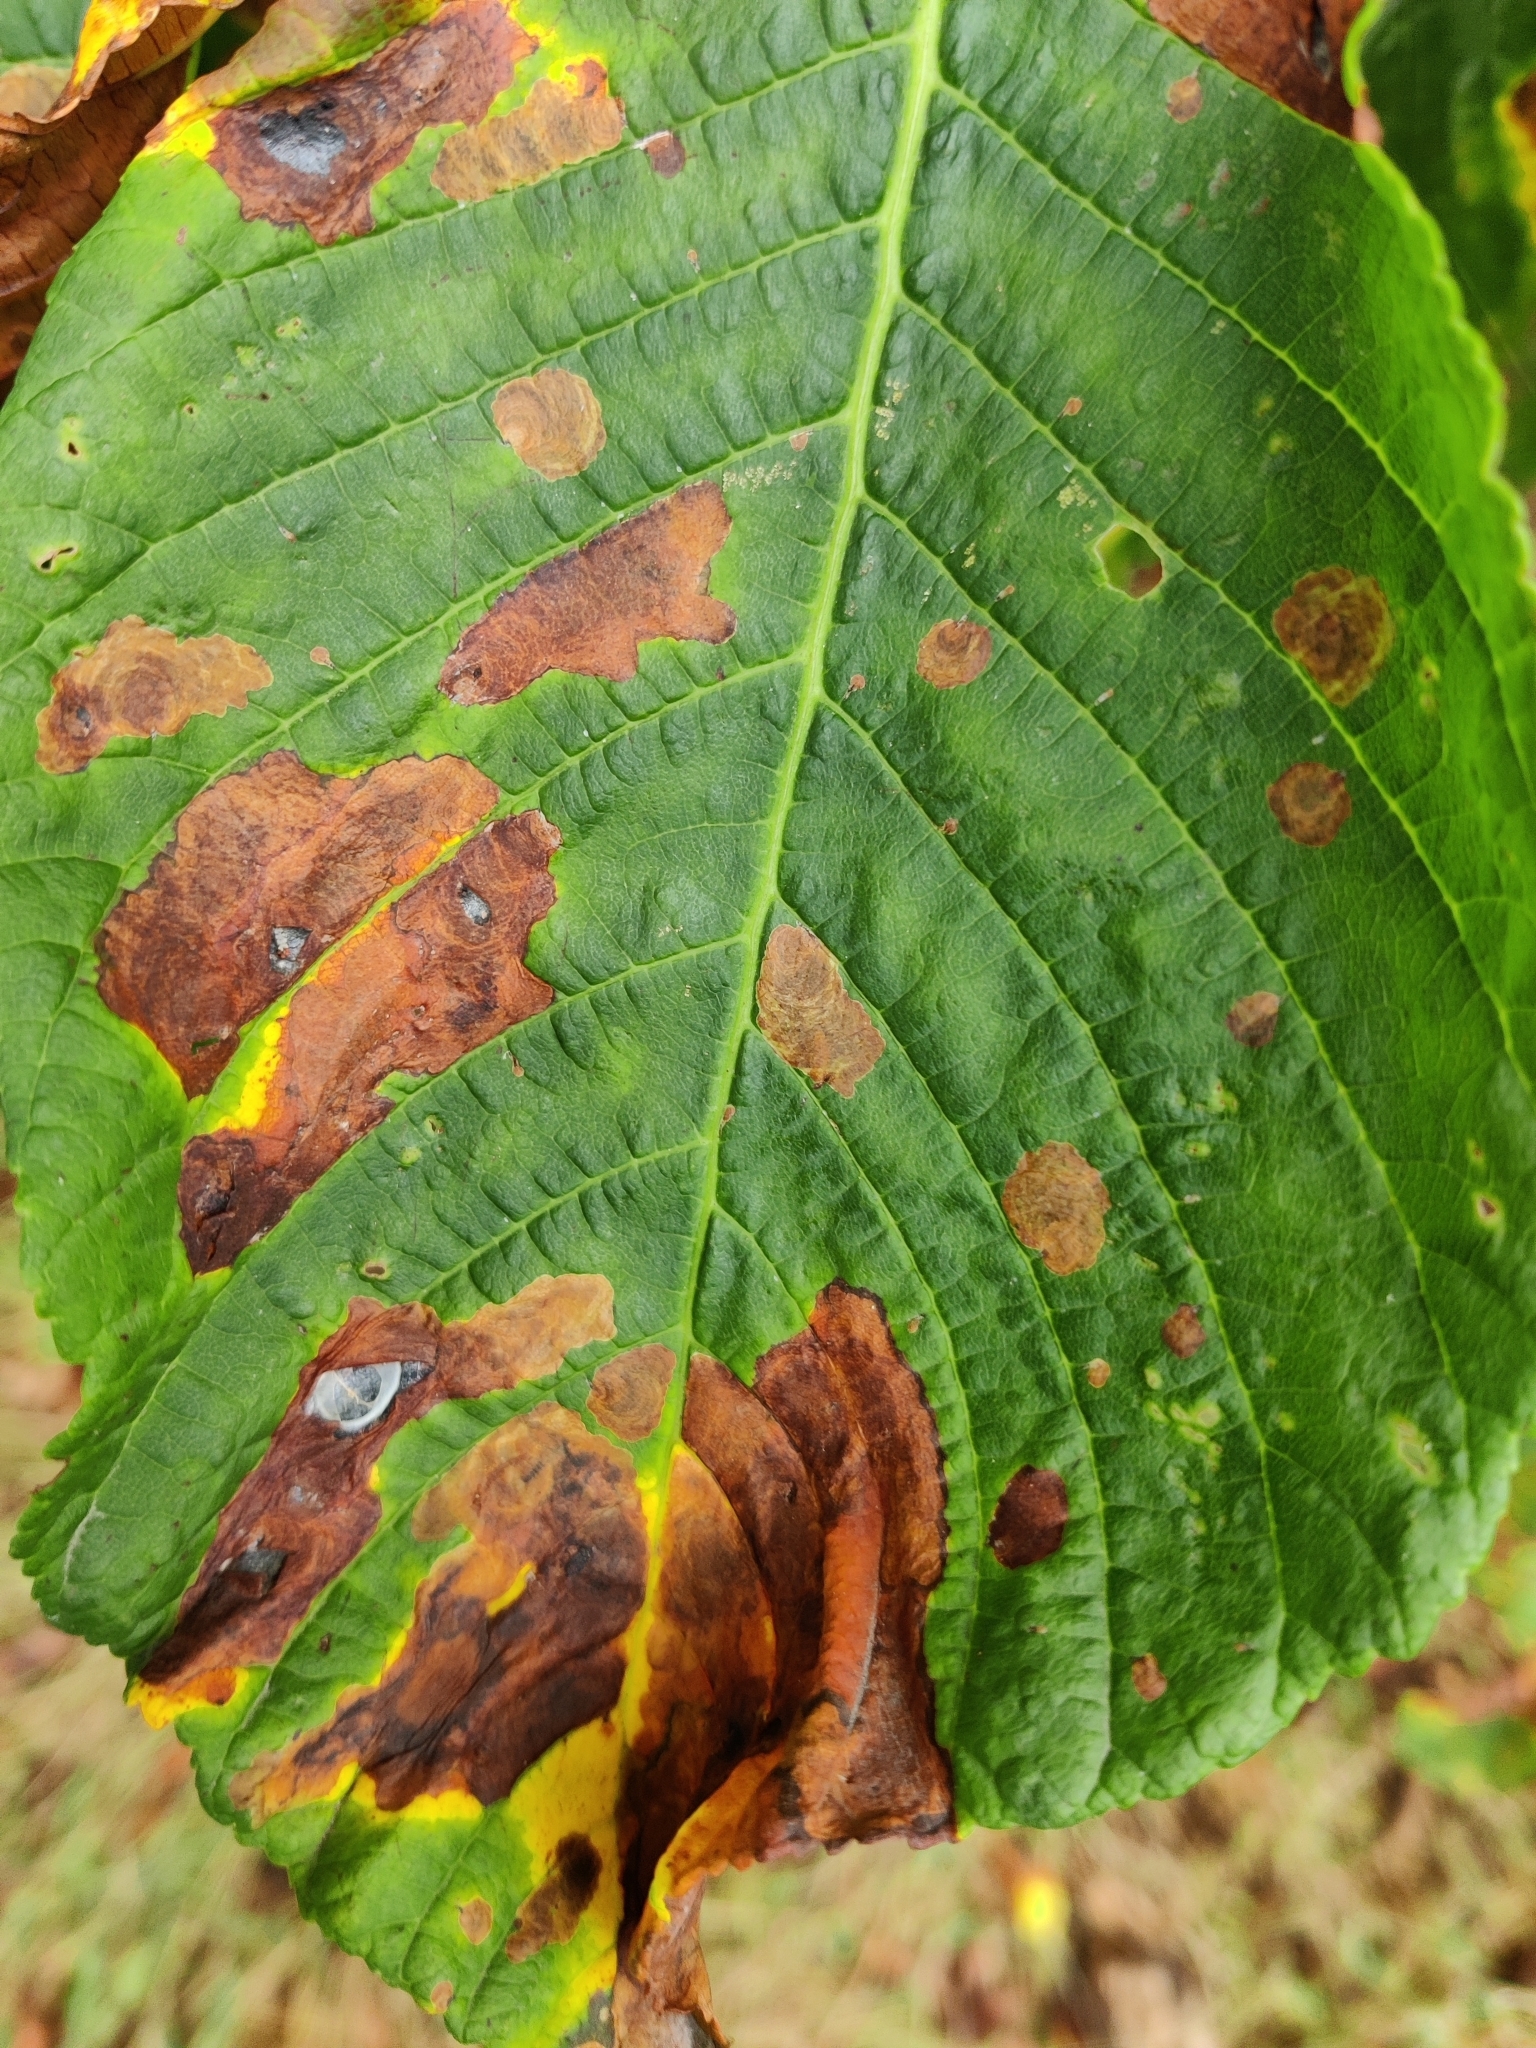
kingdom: Animalia
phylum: Arthropoda
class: Insecta
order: Lepidoptera
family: Gracillariidae
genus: Cameraria
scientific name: Cameraria ohridella
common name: Horse-chestnut leaf-miner
